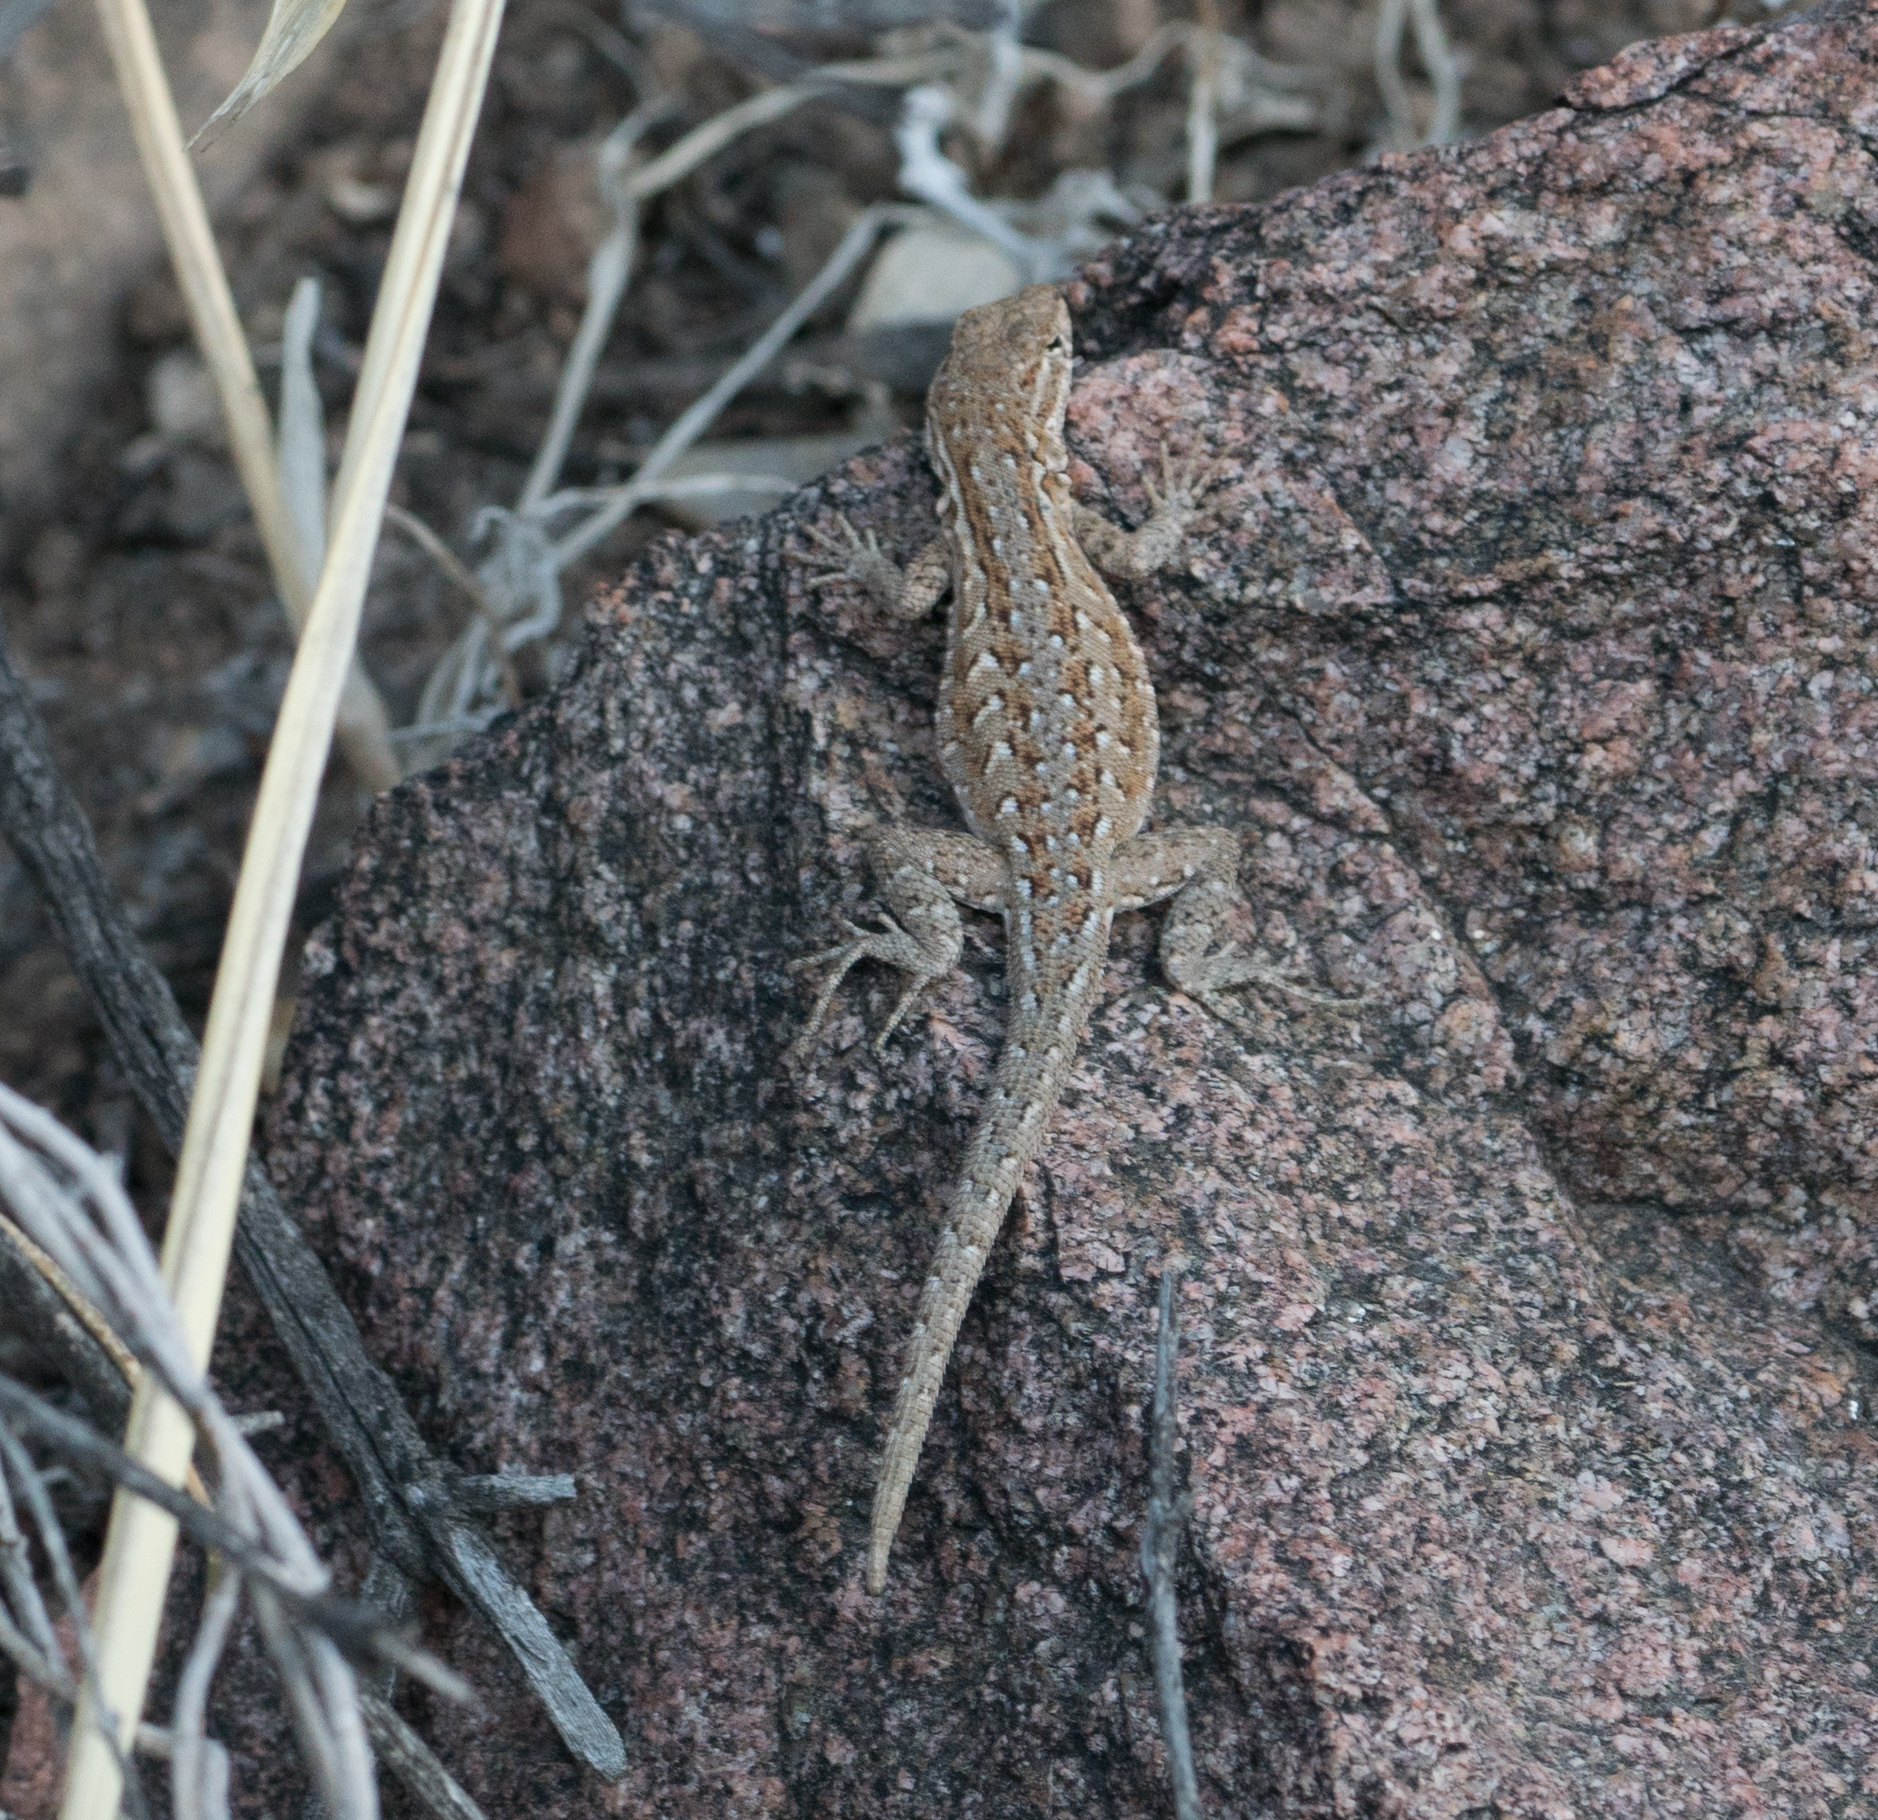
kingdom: Animalia
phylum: Chordata
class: Squamata
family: Phrynosomatidae
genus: Uta
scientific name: Uta stansburiana
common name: Side-blotched lizard
